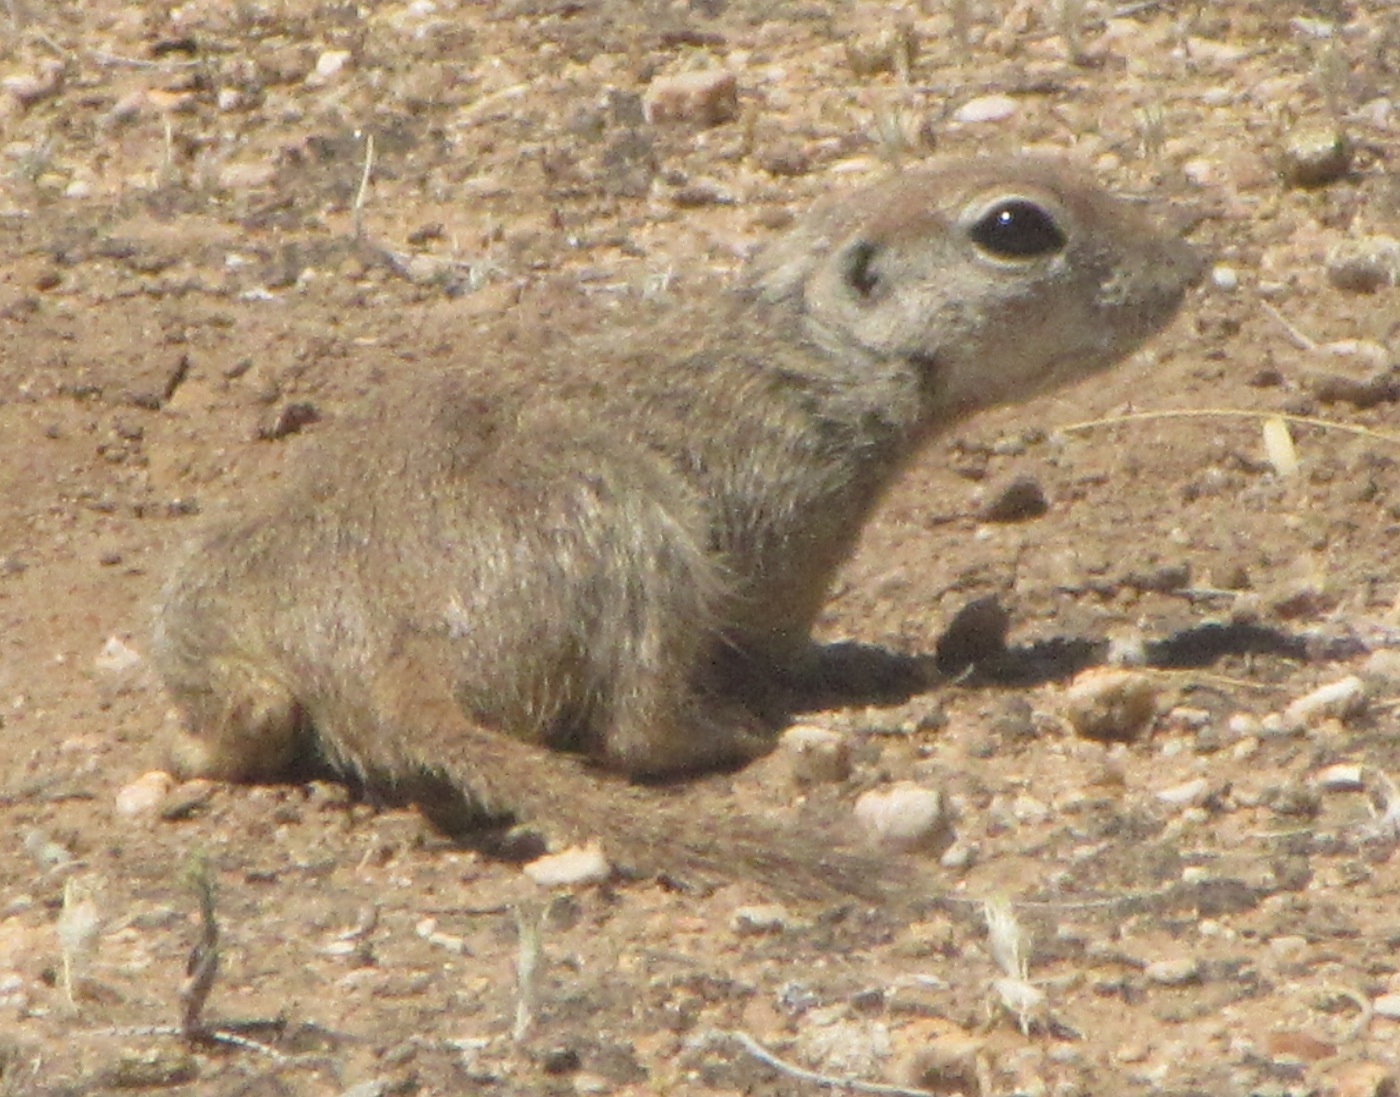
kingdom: Animalia
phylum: Chordata
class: Mammalia
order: Rodentia
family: Sciuridae
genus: Xerospermophilus
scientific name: Xerospermophilus tereticaudus
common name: Round-tailed ground squirrel
